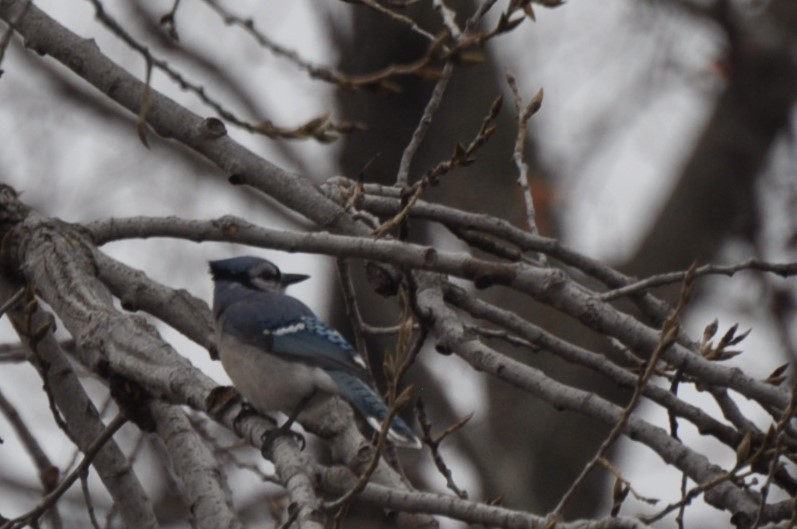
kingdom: Animalia
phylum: Chordata
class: Aves
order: Passeriformes
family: Corvidae
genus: Cyanocitta
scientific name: Cyanocitta cristata
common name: Blue jay
